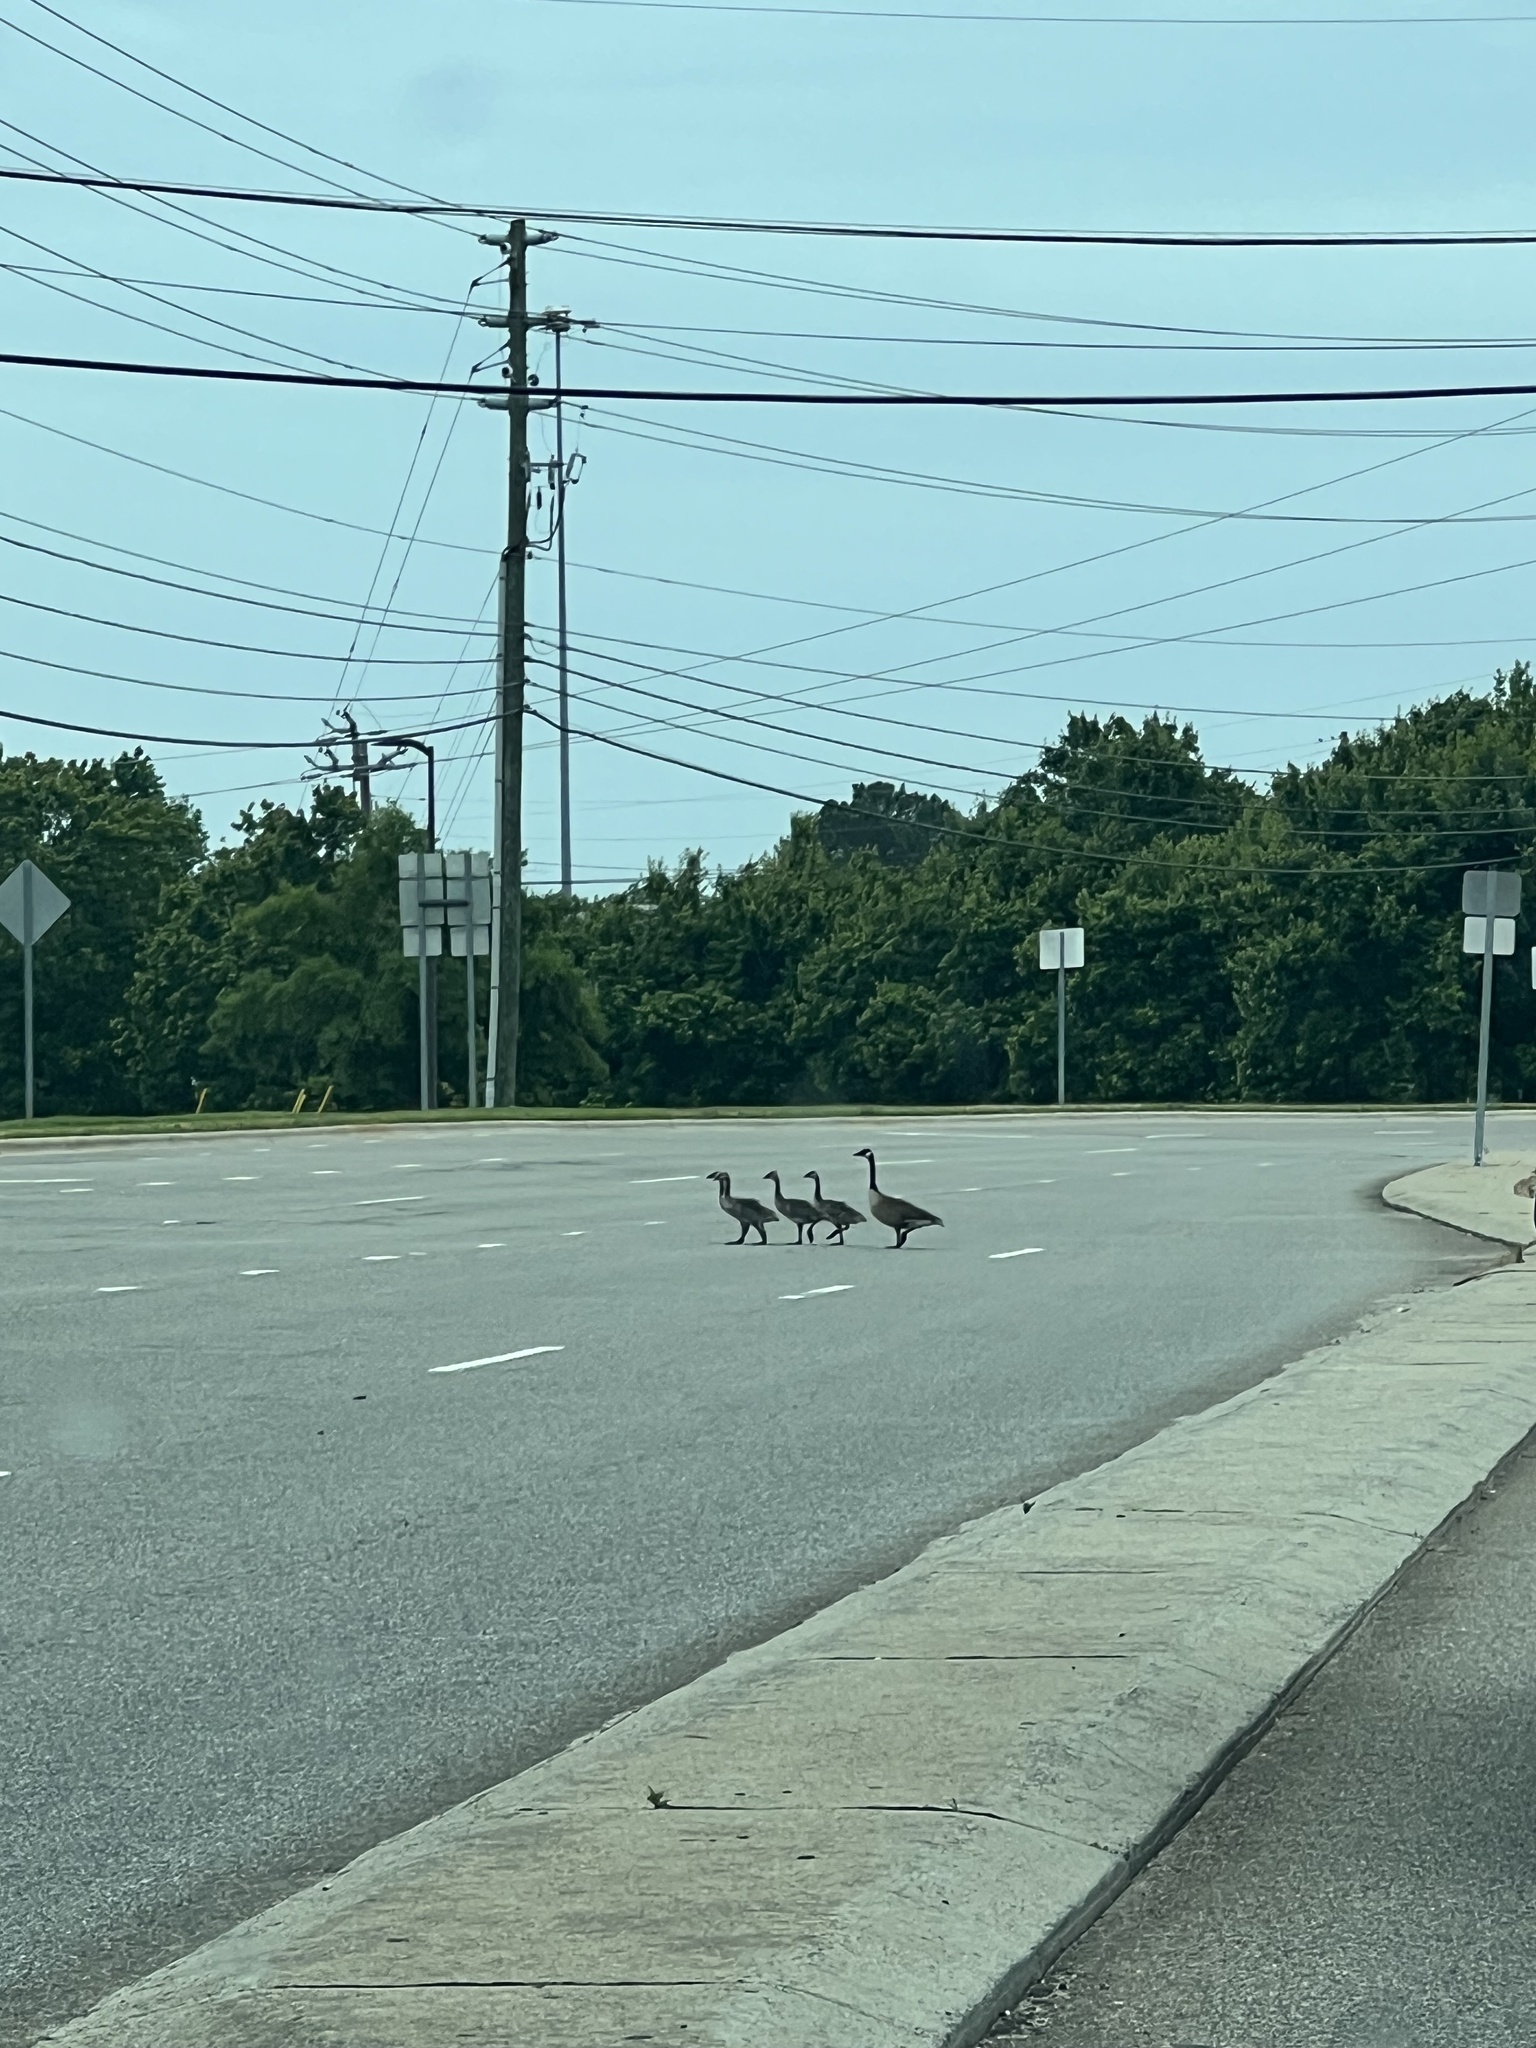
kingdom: Animalia
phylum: Chordata
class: Aves
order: Anseriformes
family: Anatidae
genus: Branta
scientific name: Branta canadensis
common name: Canada goose
